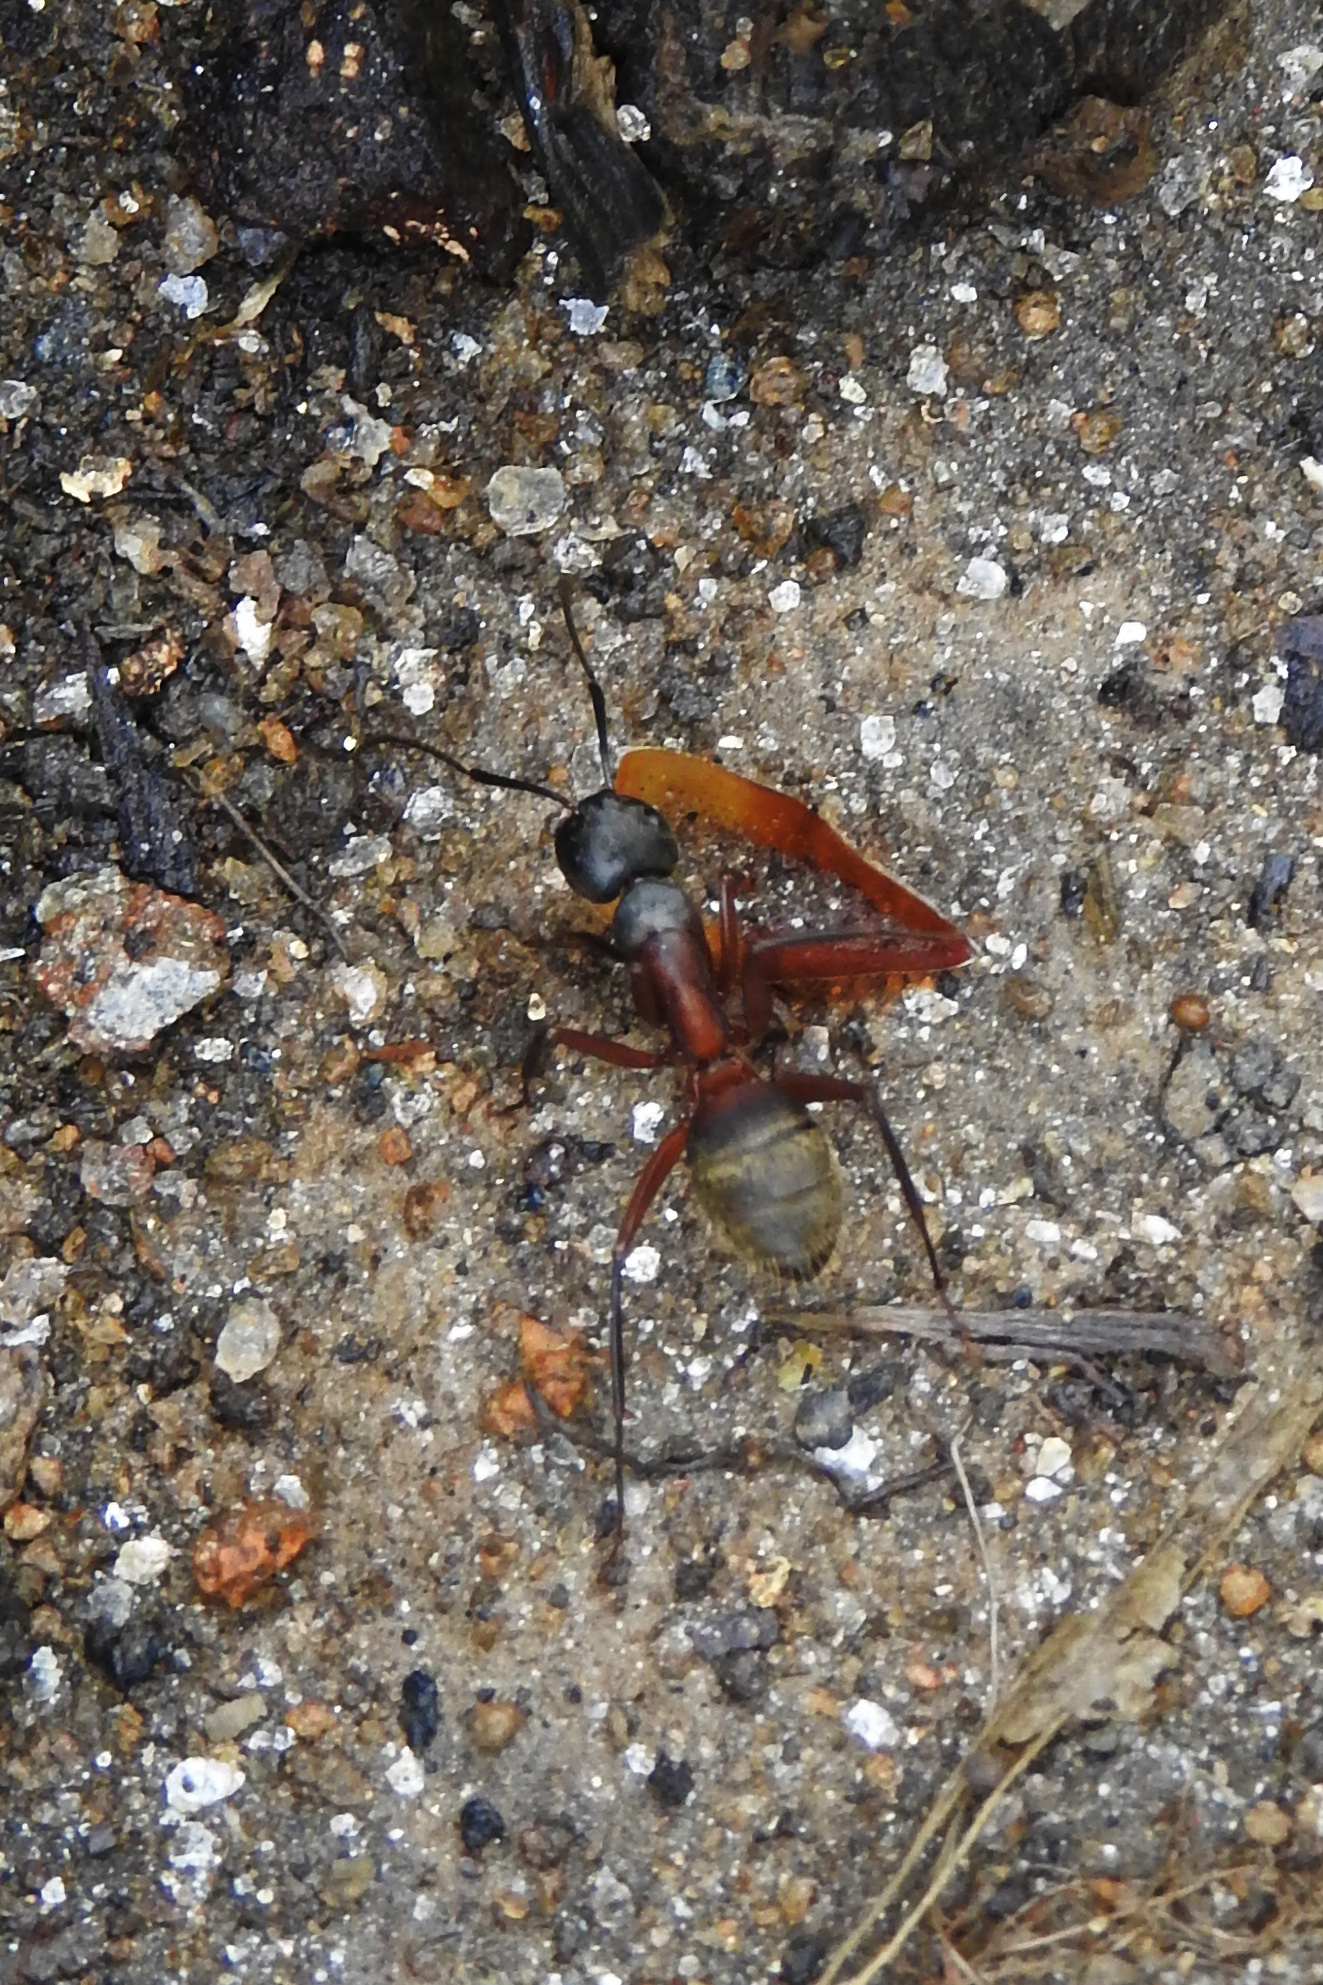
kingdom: Animalia
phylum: Arthropoda
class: Insecta
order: Hymenoptera
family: Formicidae
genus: Camponotus
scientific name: Camponotus chromaiodes
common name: Red carpenter ant
